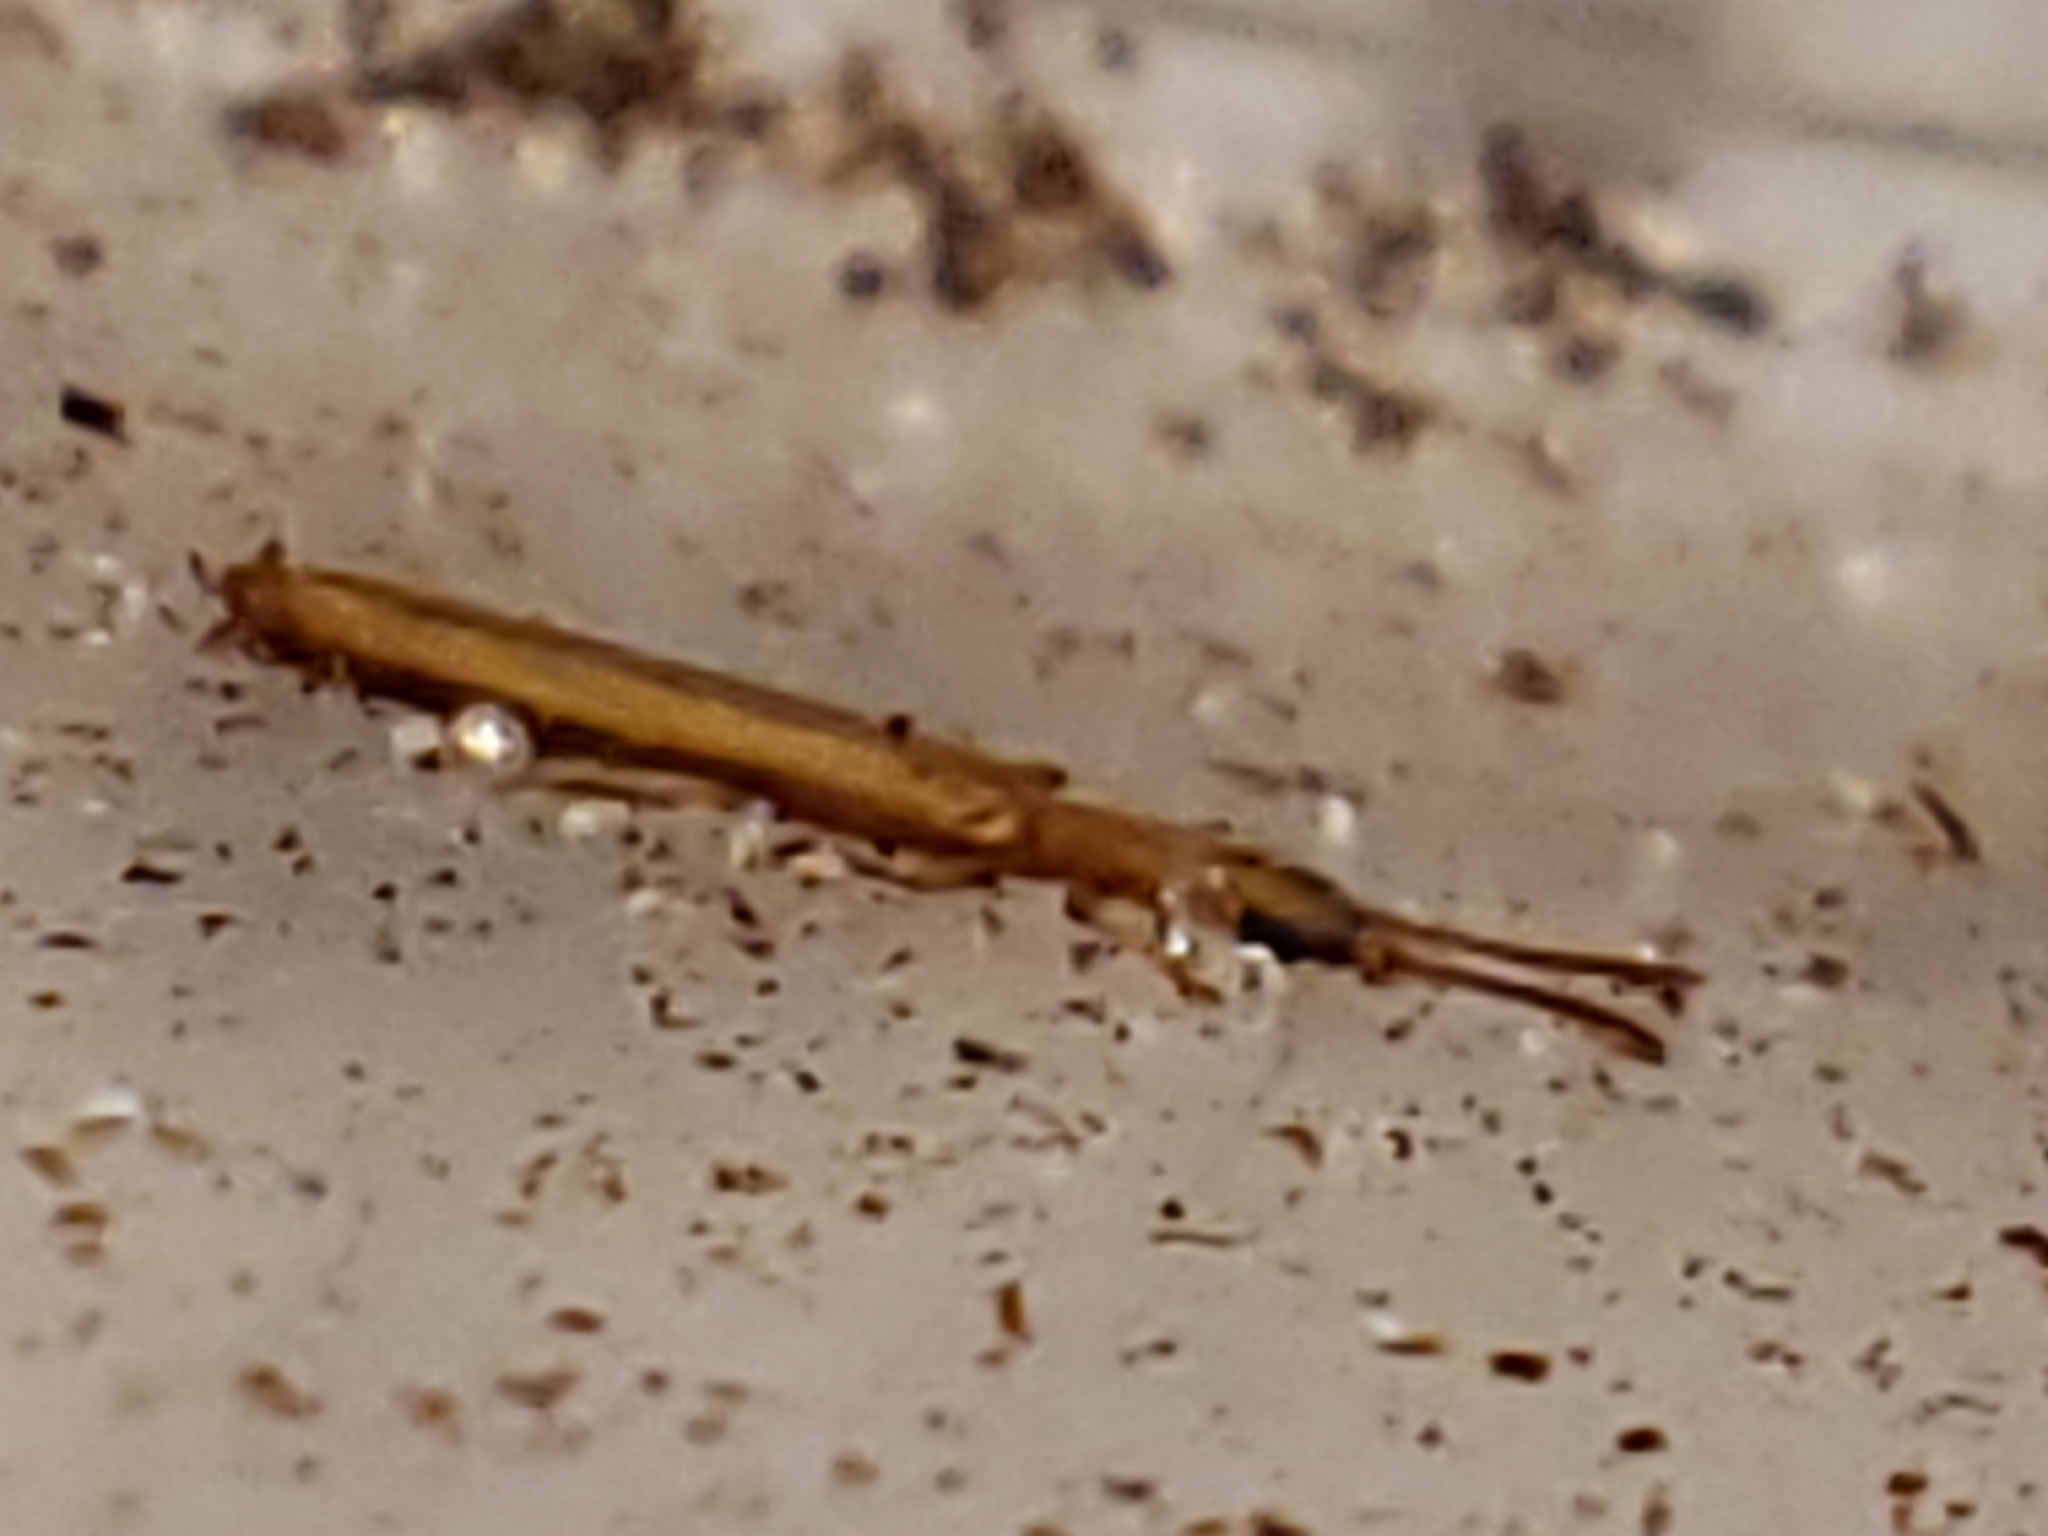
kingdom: Animalia
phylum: Arthropoda
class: Insecta
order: Coleoptera
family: Mycteridae
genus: Hemipeplus
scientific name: Hemipeplus marginipennis
